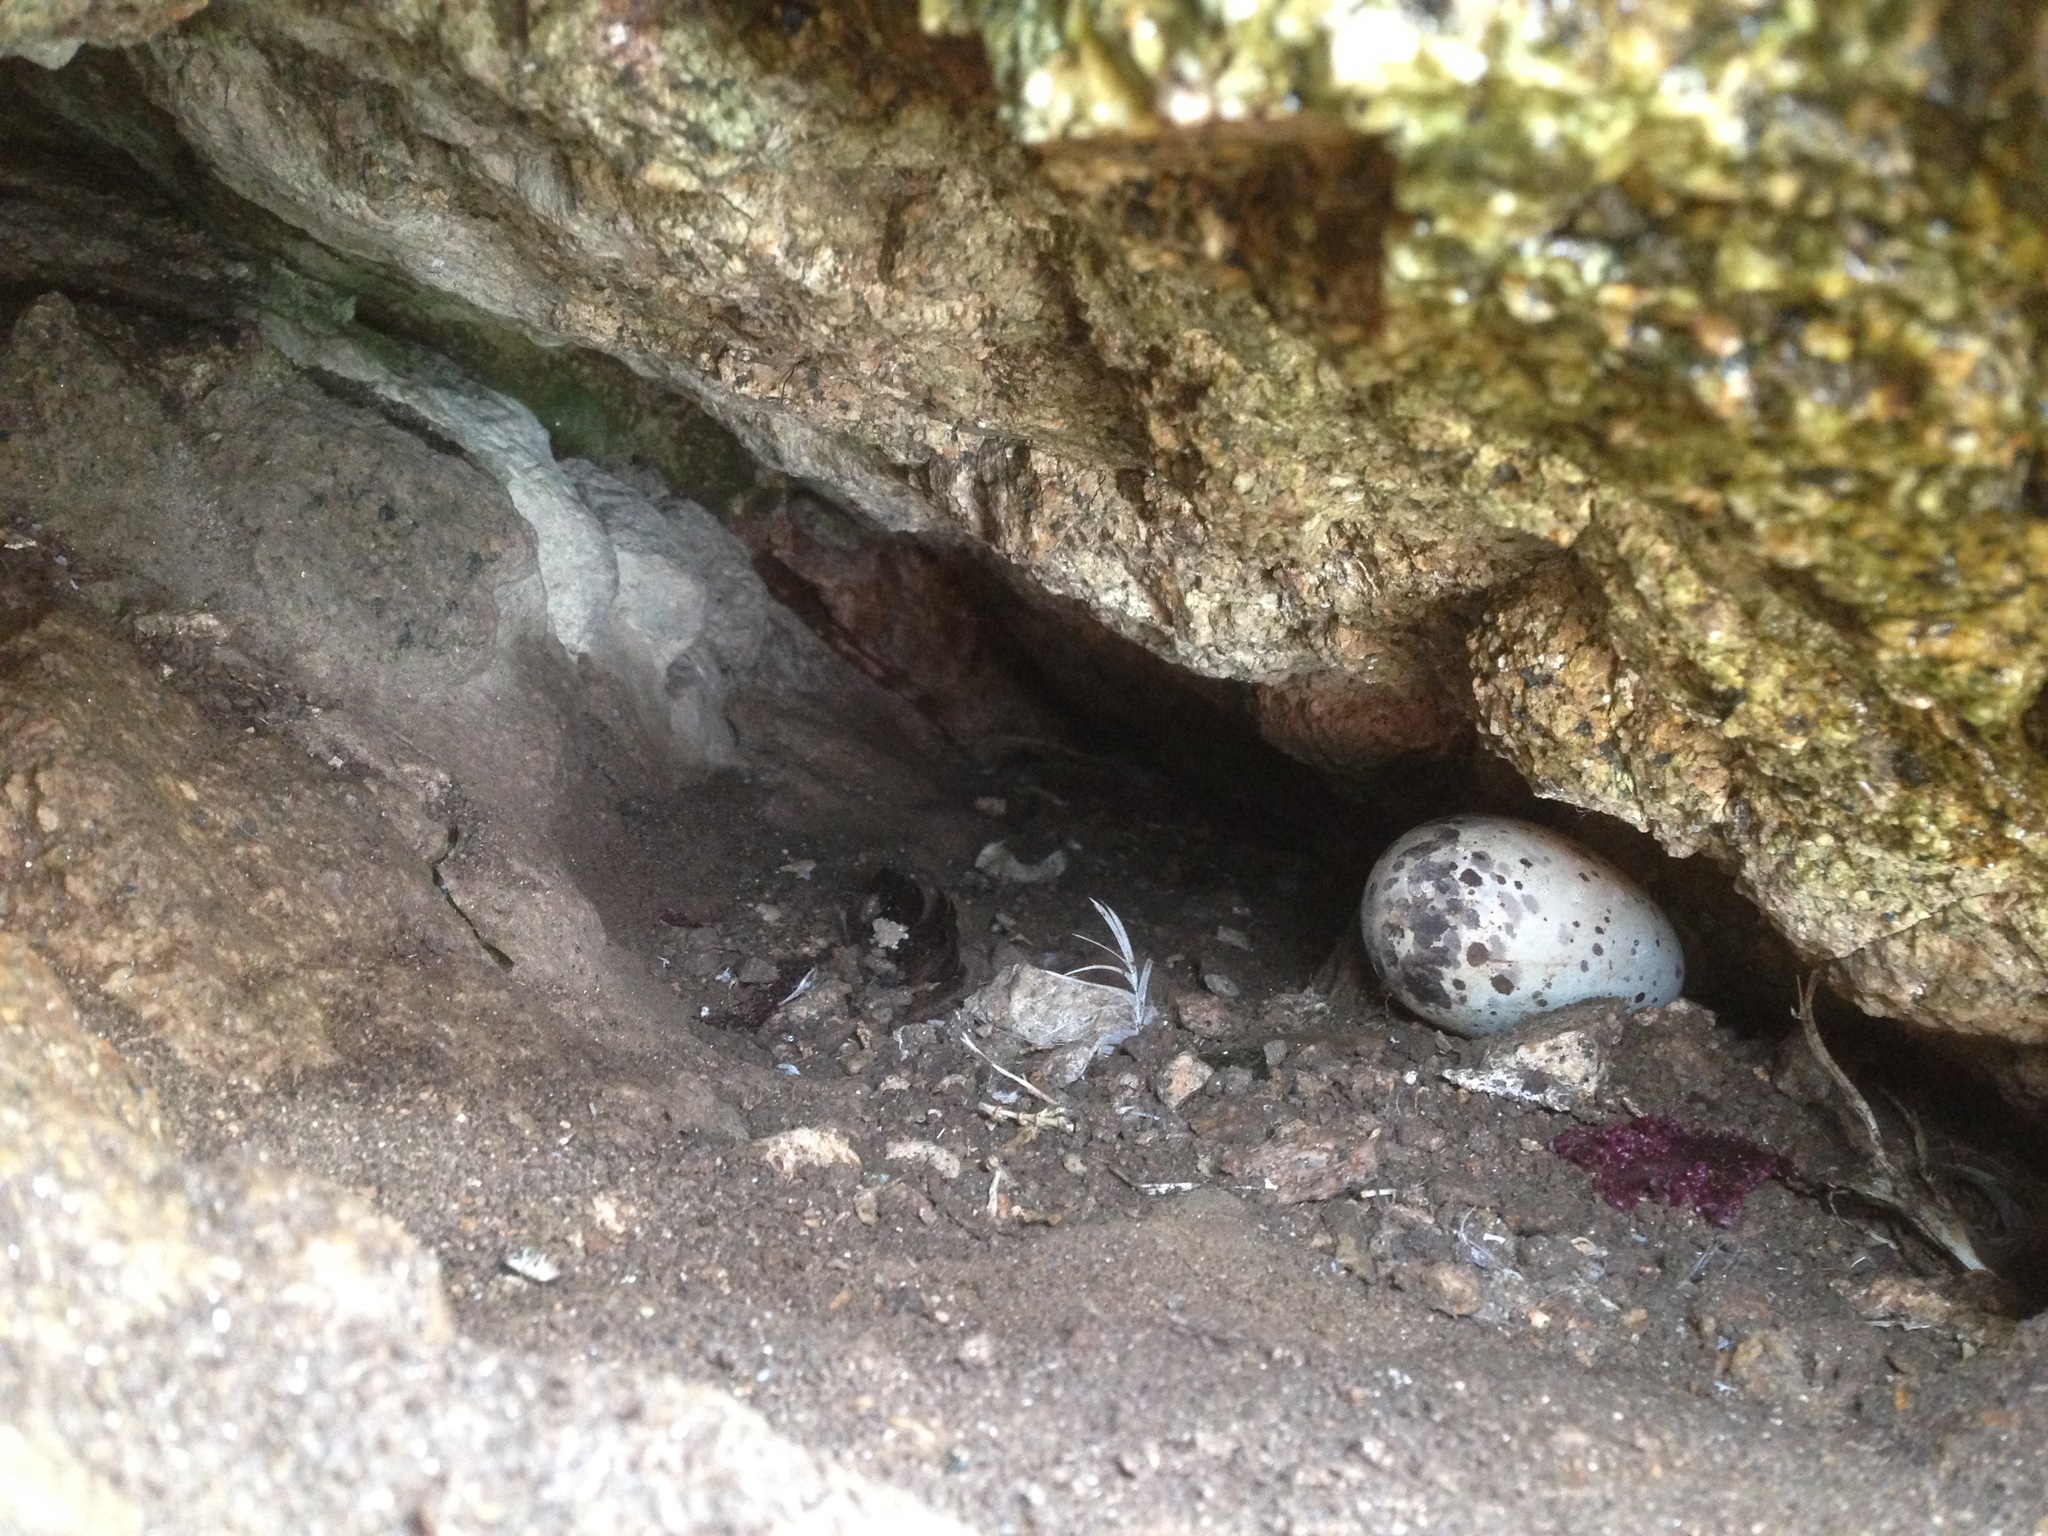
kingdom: Animalia
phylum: Chordata
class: Aves
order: Charadriiformes
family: Alcidae
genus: Cepphus
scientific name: Cepphus columba
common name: Pigeon guillemot
